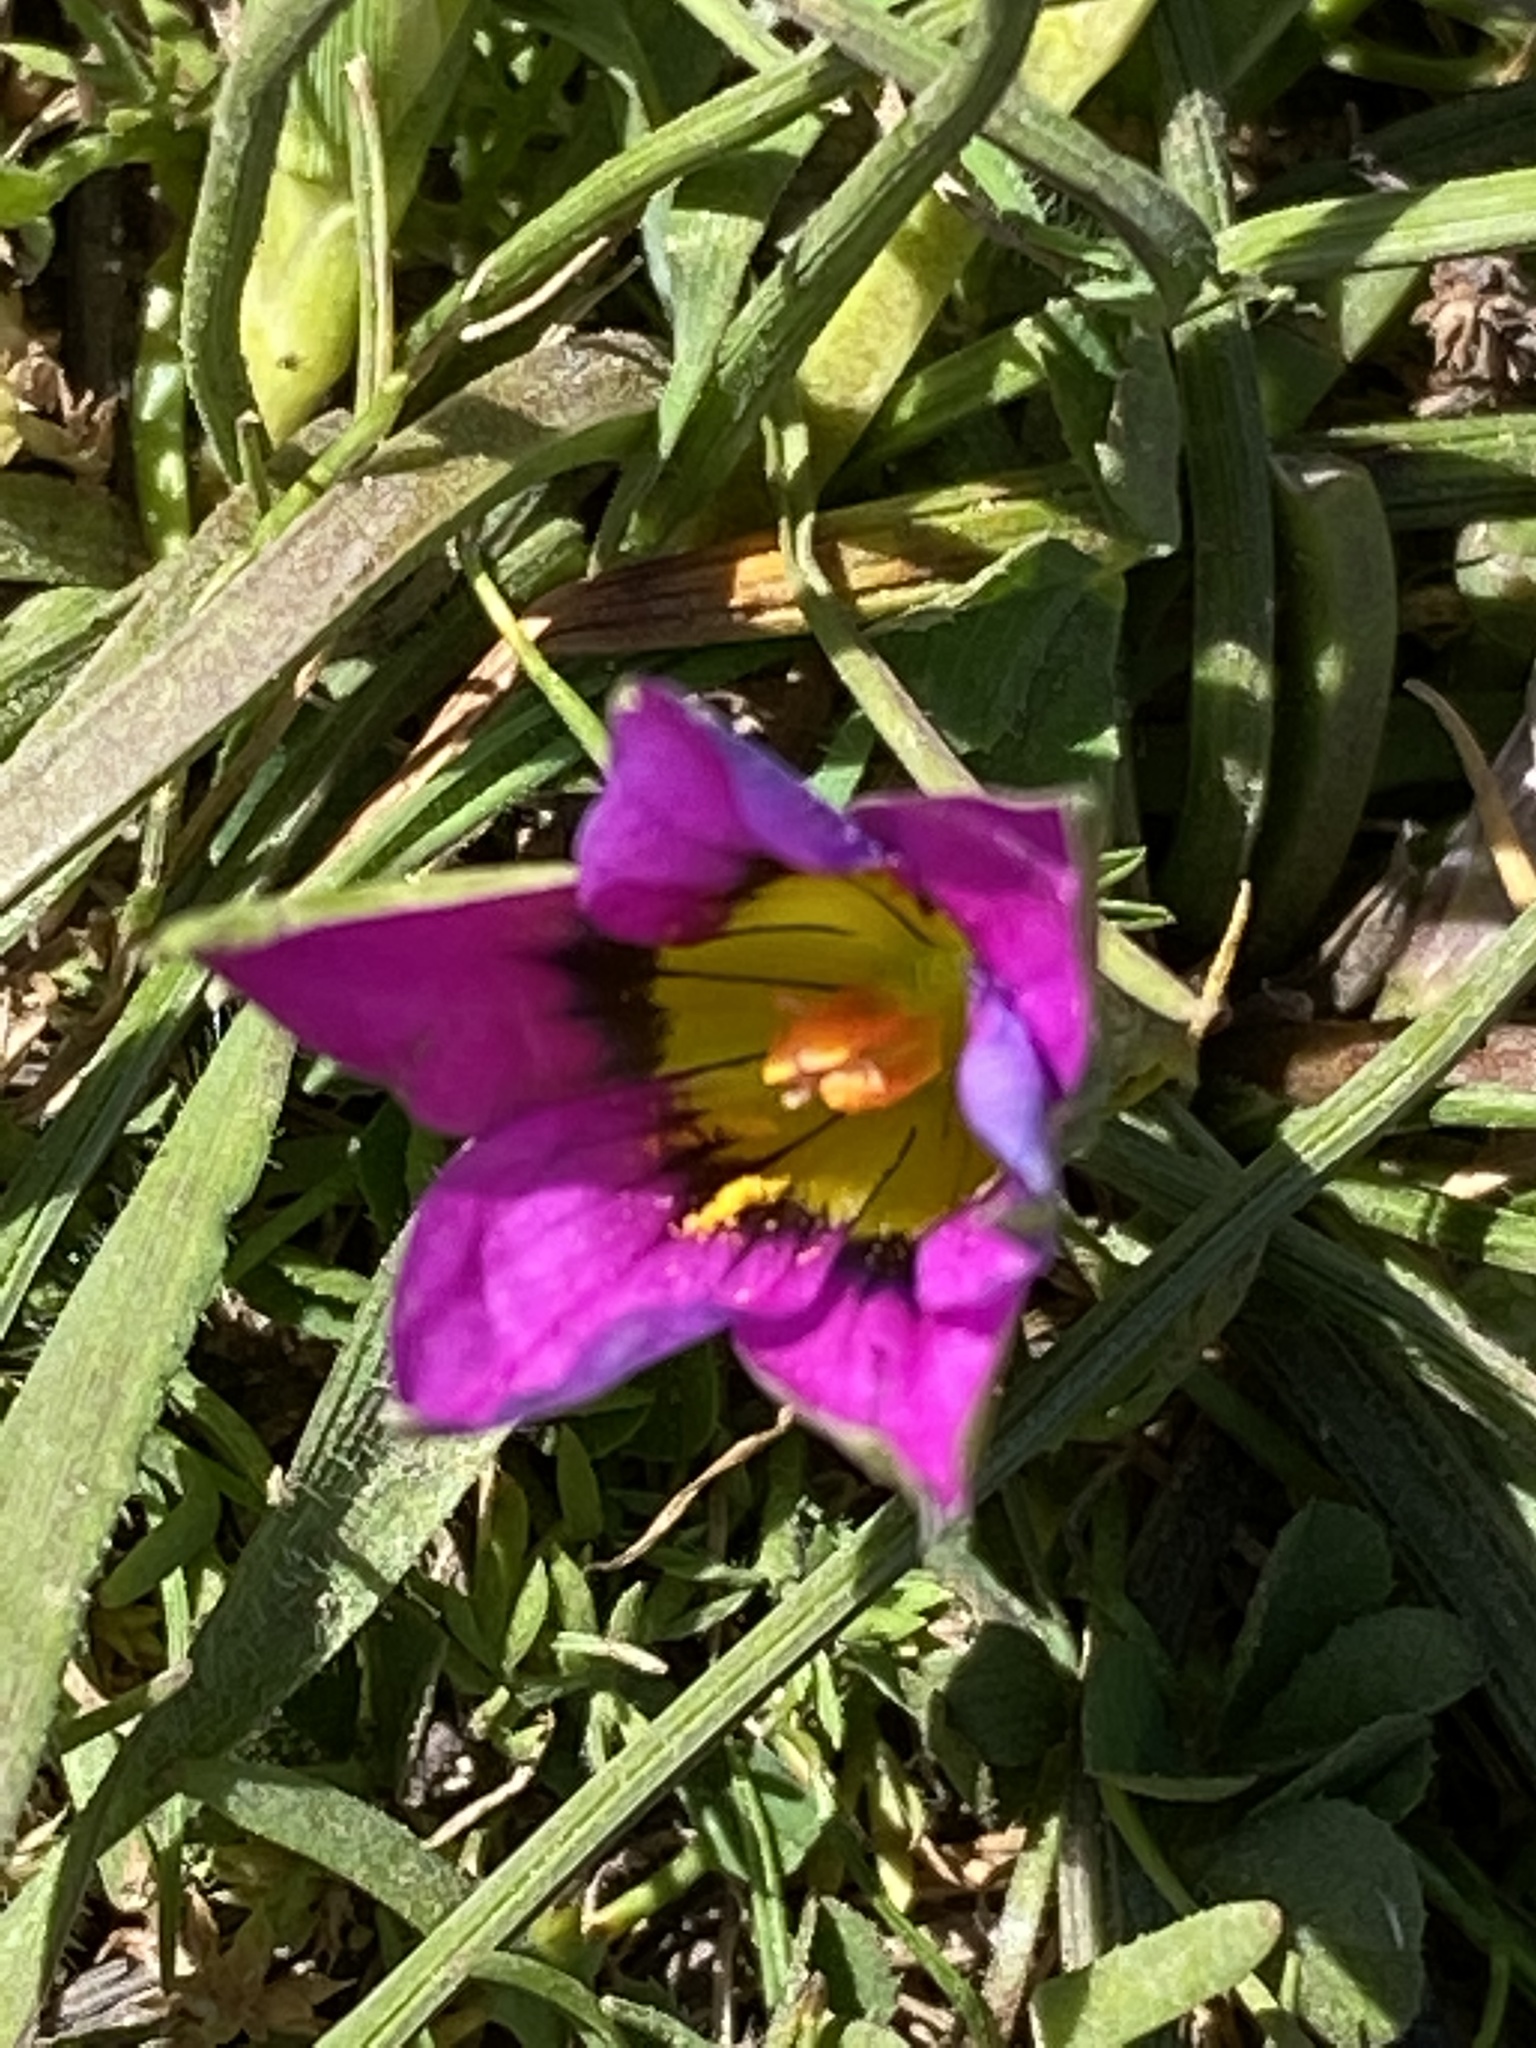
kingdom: Plantae
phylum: Tracheophyta
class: Liliopsida
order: Asparagales
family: Iridaceae
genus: Romulea
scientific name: Romulea rosea
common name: Oniongrass
